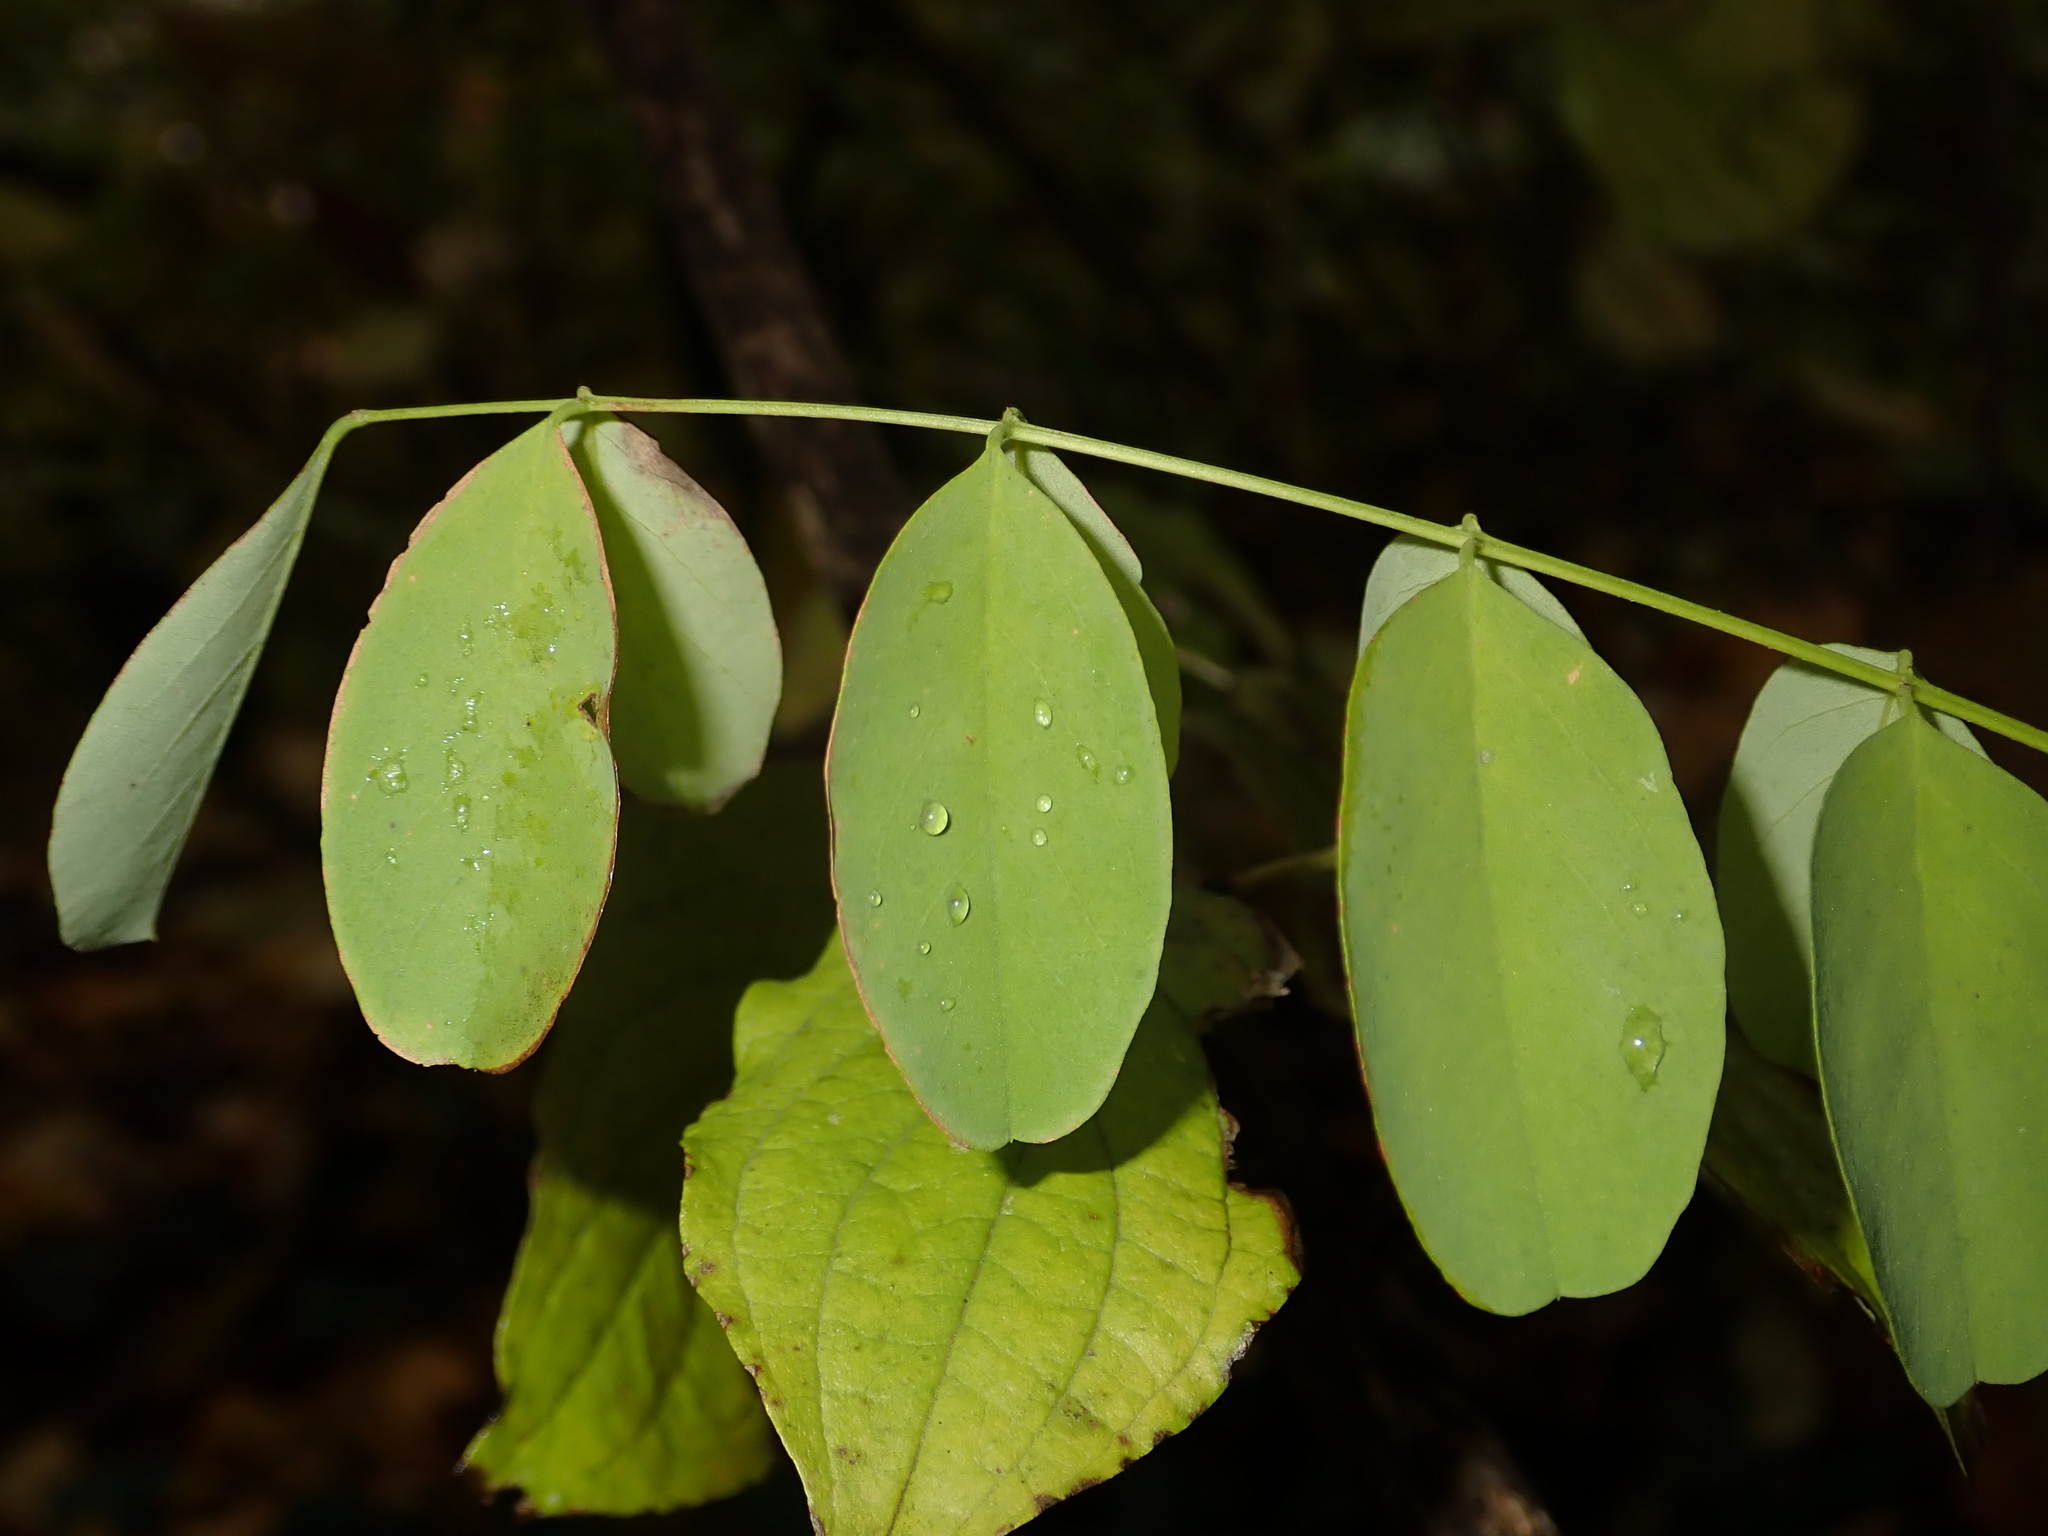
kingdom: Plantae
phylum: Tracheophyta
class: Magnoliopsida
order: Fabales
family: Fabaceae
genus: Robinia
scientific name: Robinia pseudoacacia
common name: Black locust
